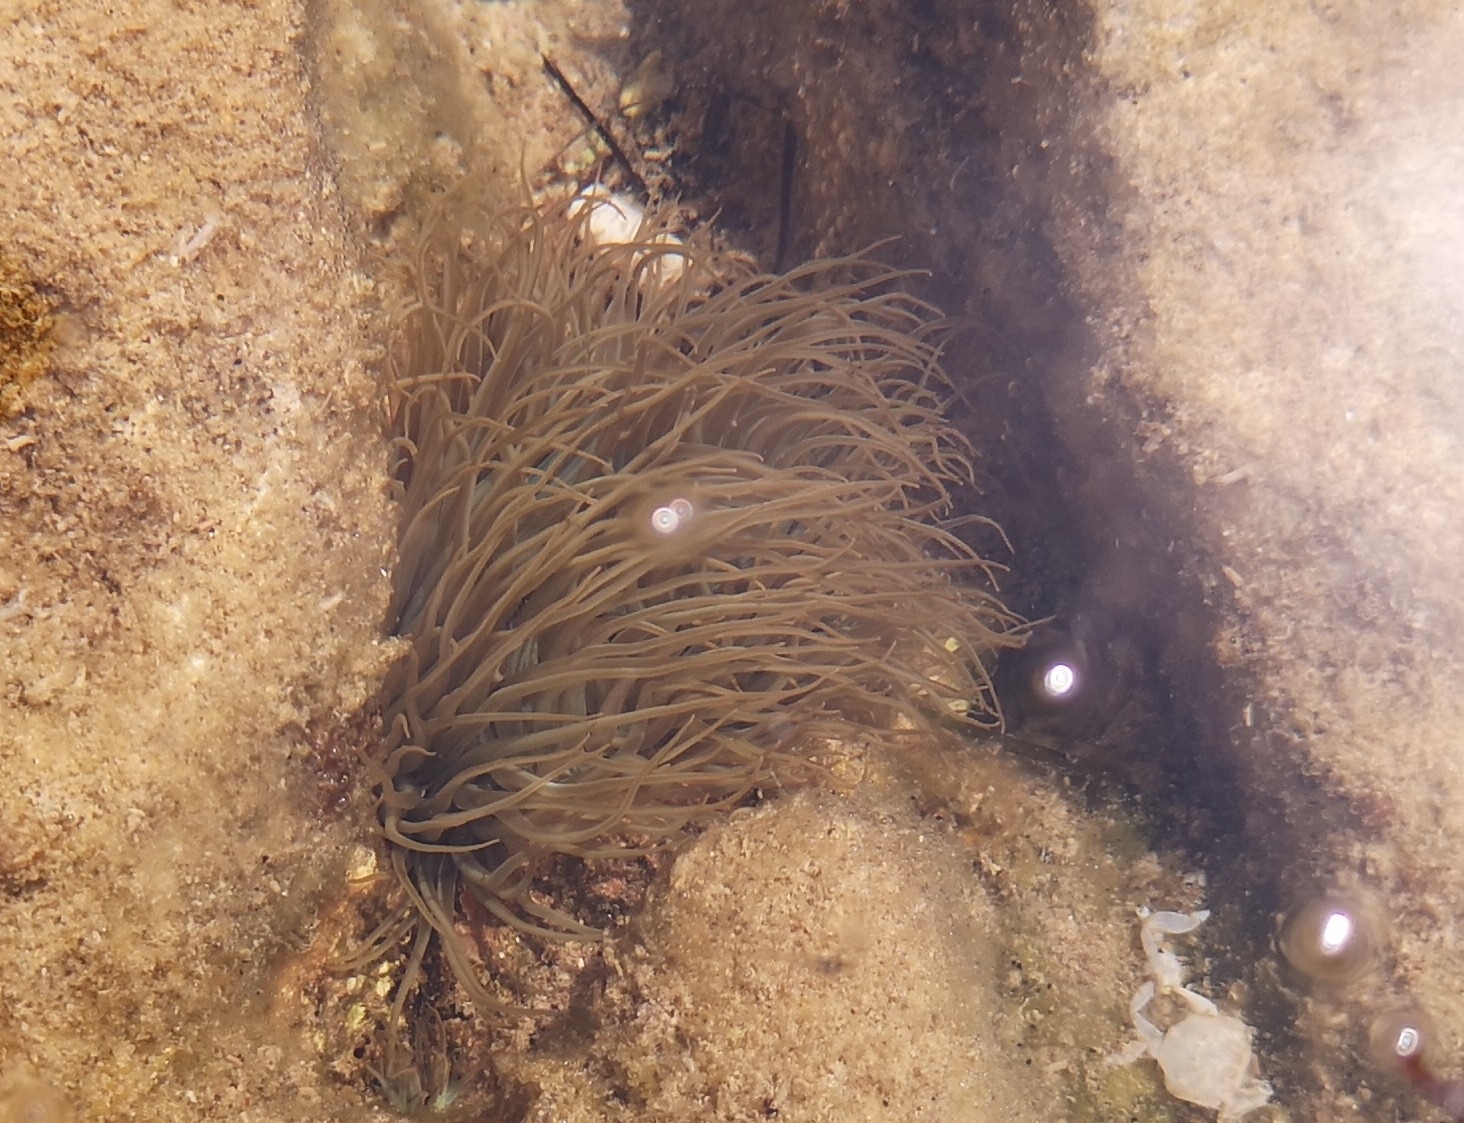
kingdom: Animalia
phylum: Cnidaria
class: Anthozoa
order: Actiniaria
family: Actiniidae
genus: Anemonia
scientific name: Anemonia viridis
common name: Snakelocks anemone
